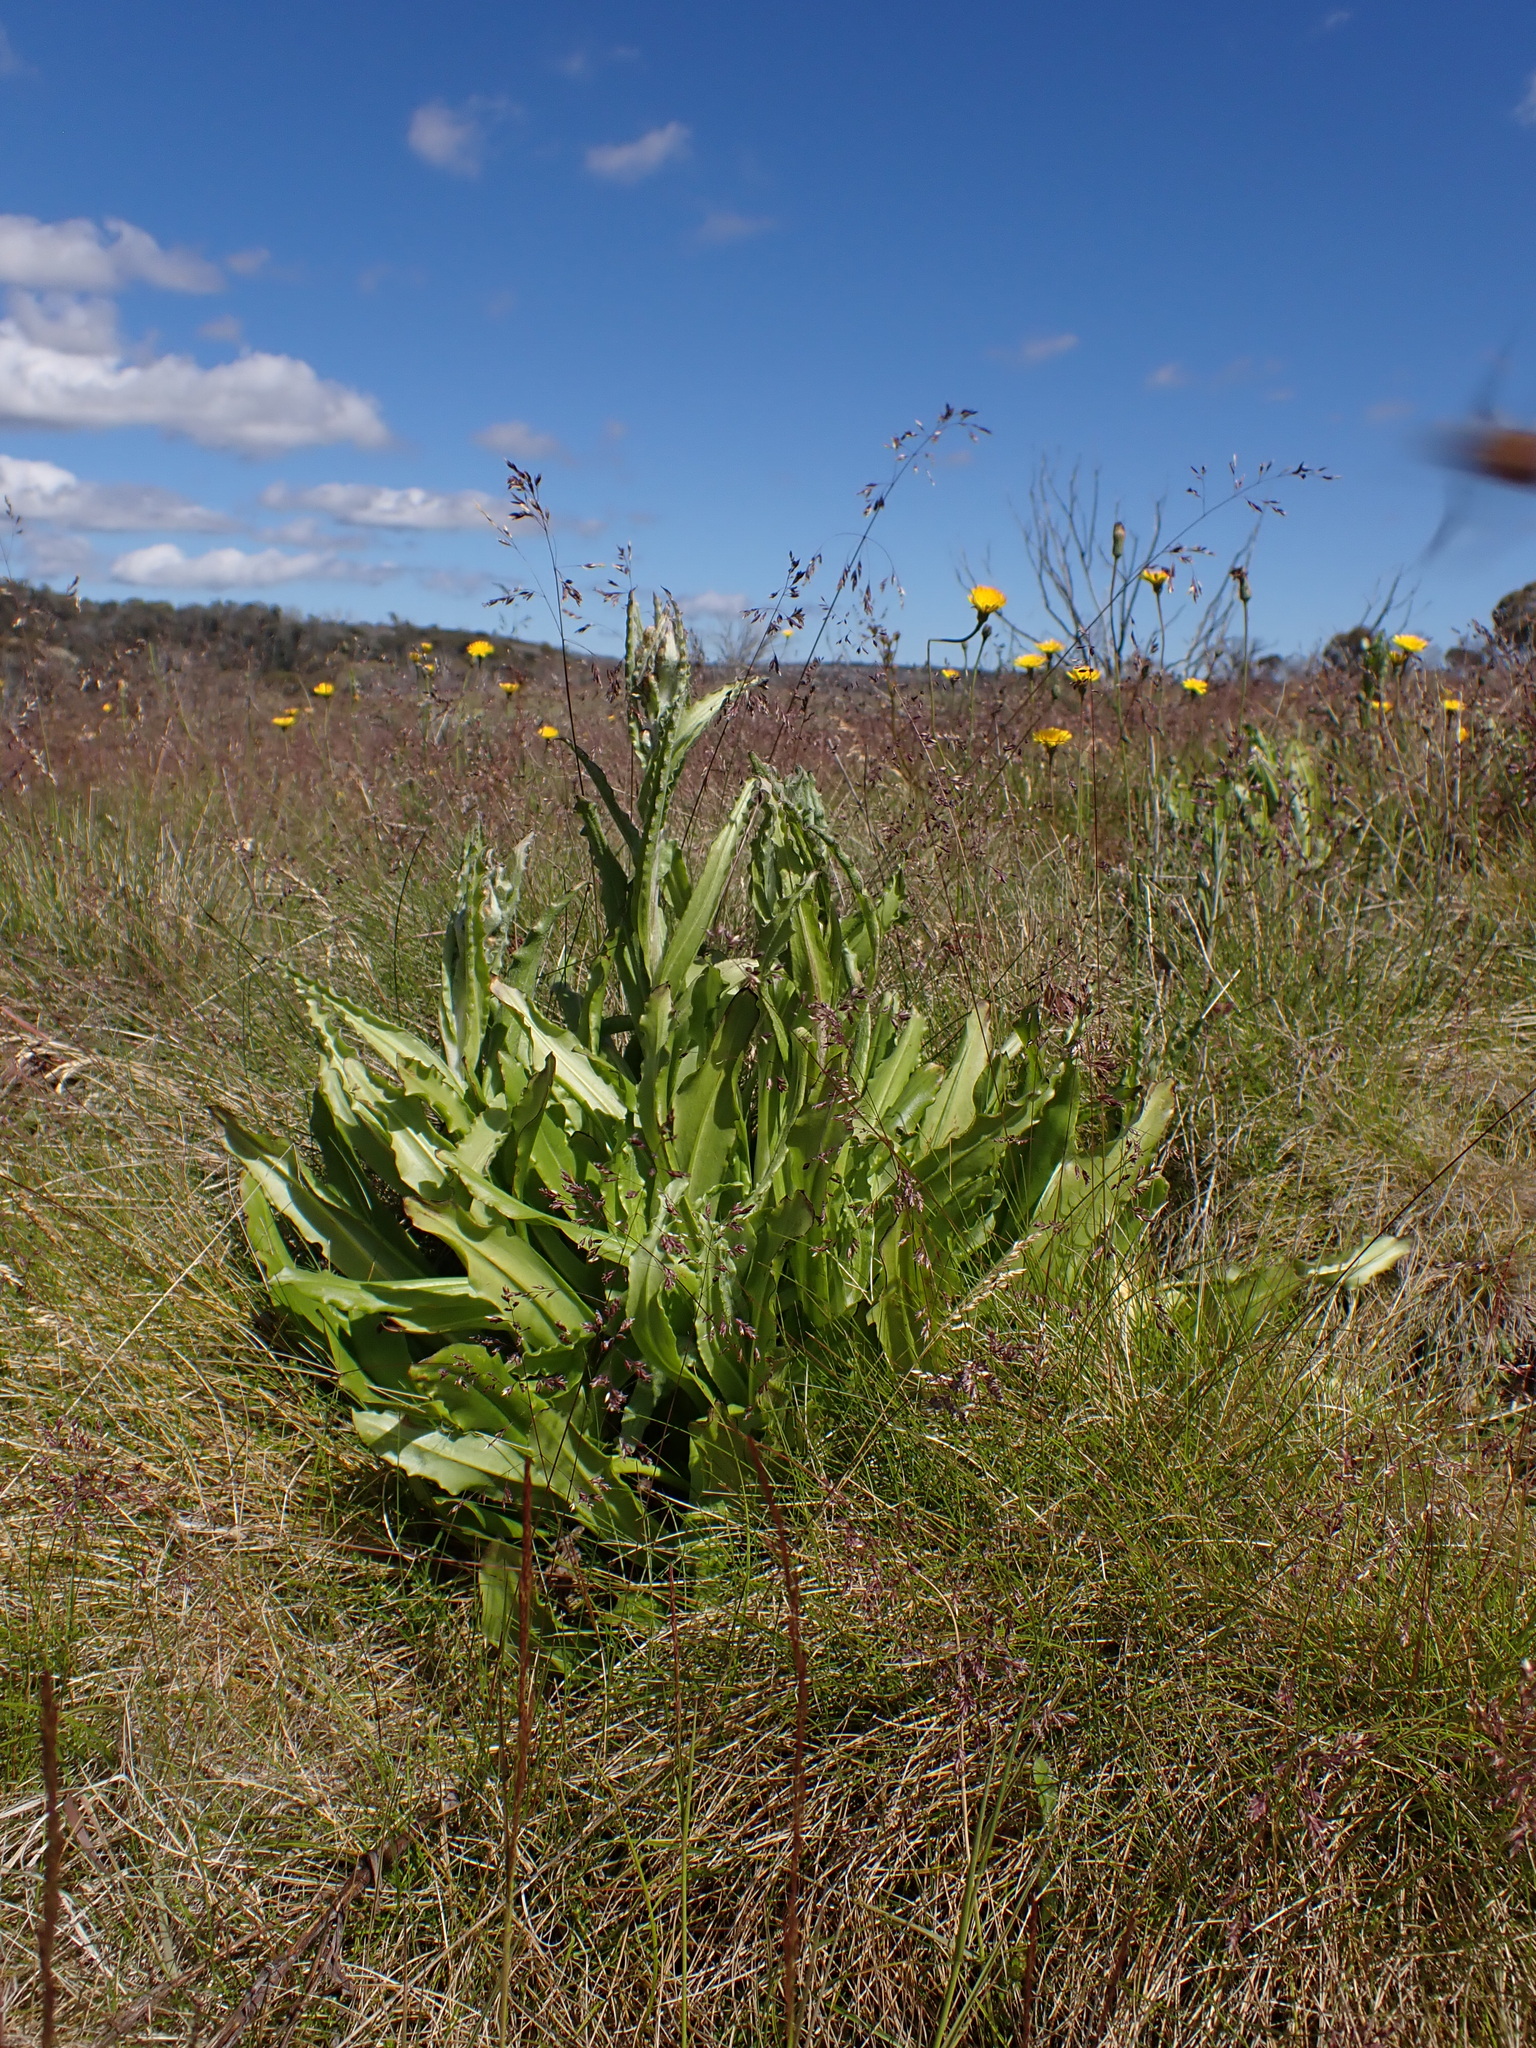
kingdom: Plantae
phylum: Tracheophyta
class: Magnoliopsida
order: Asterales
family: Asteraceae
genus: Podolepis
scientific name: Podolepis robusta
